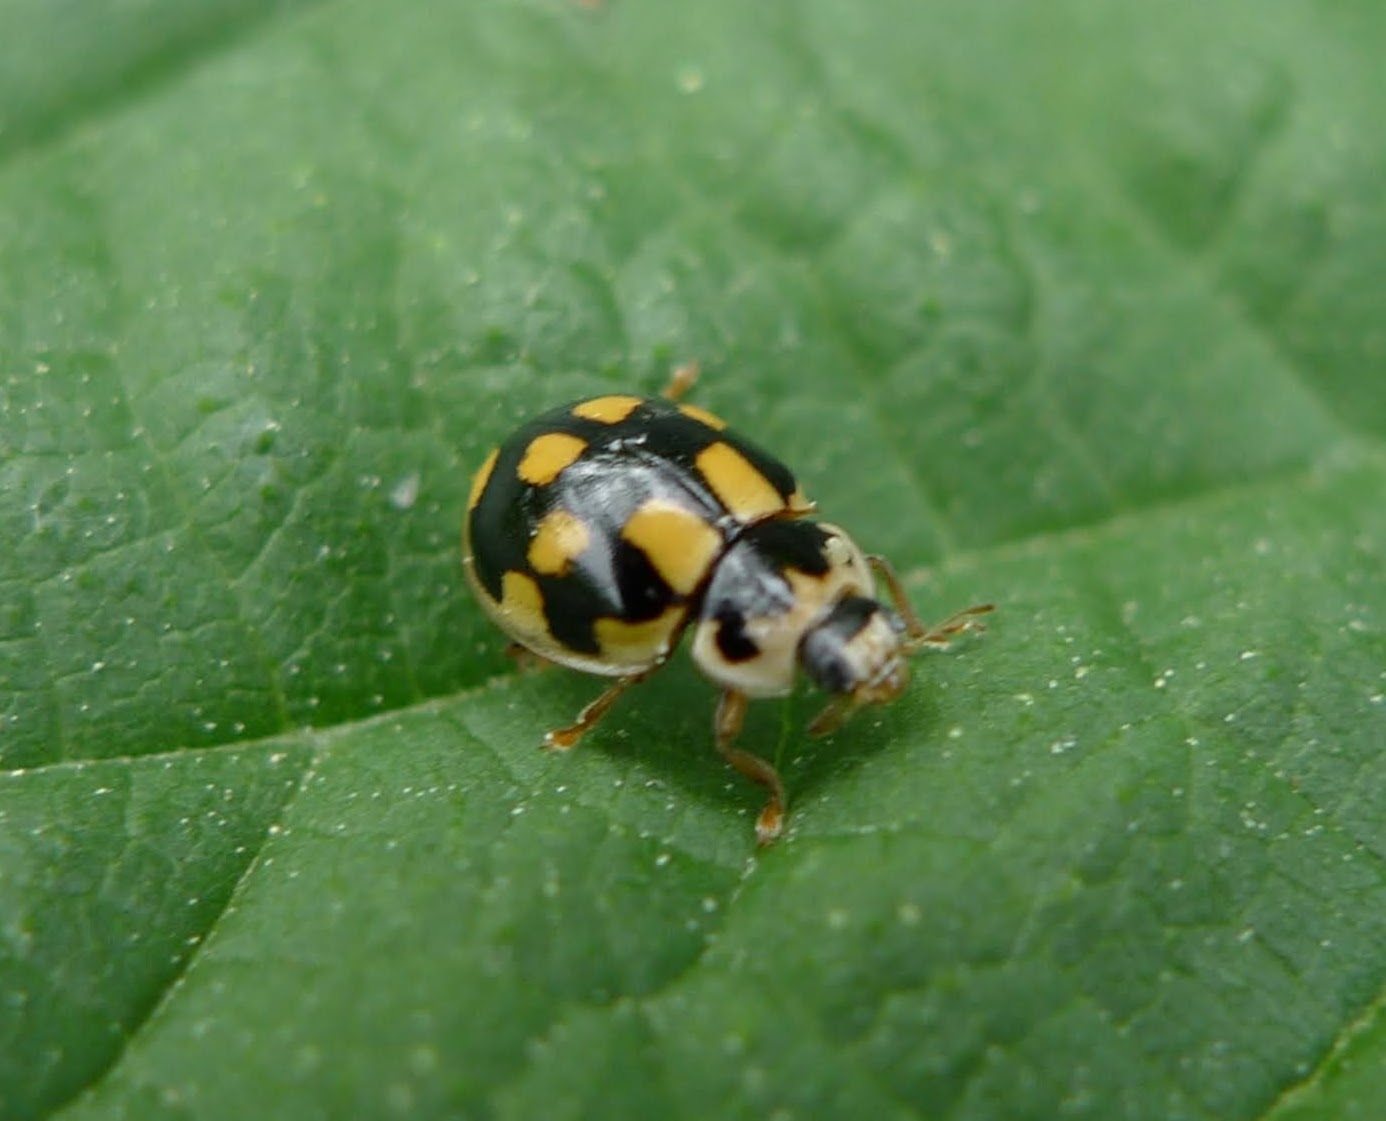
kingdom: Animalia
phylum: Arthropoda
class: Insecta
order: Coleoptera
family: Coccinellidae
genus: Propylaea
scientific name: Propylaea quatuordecimpunctata
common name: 14-spotted ladybird beetle
